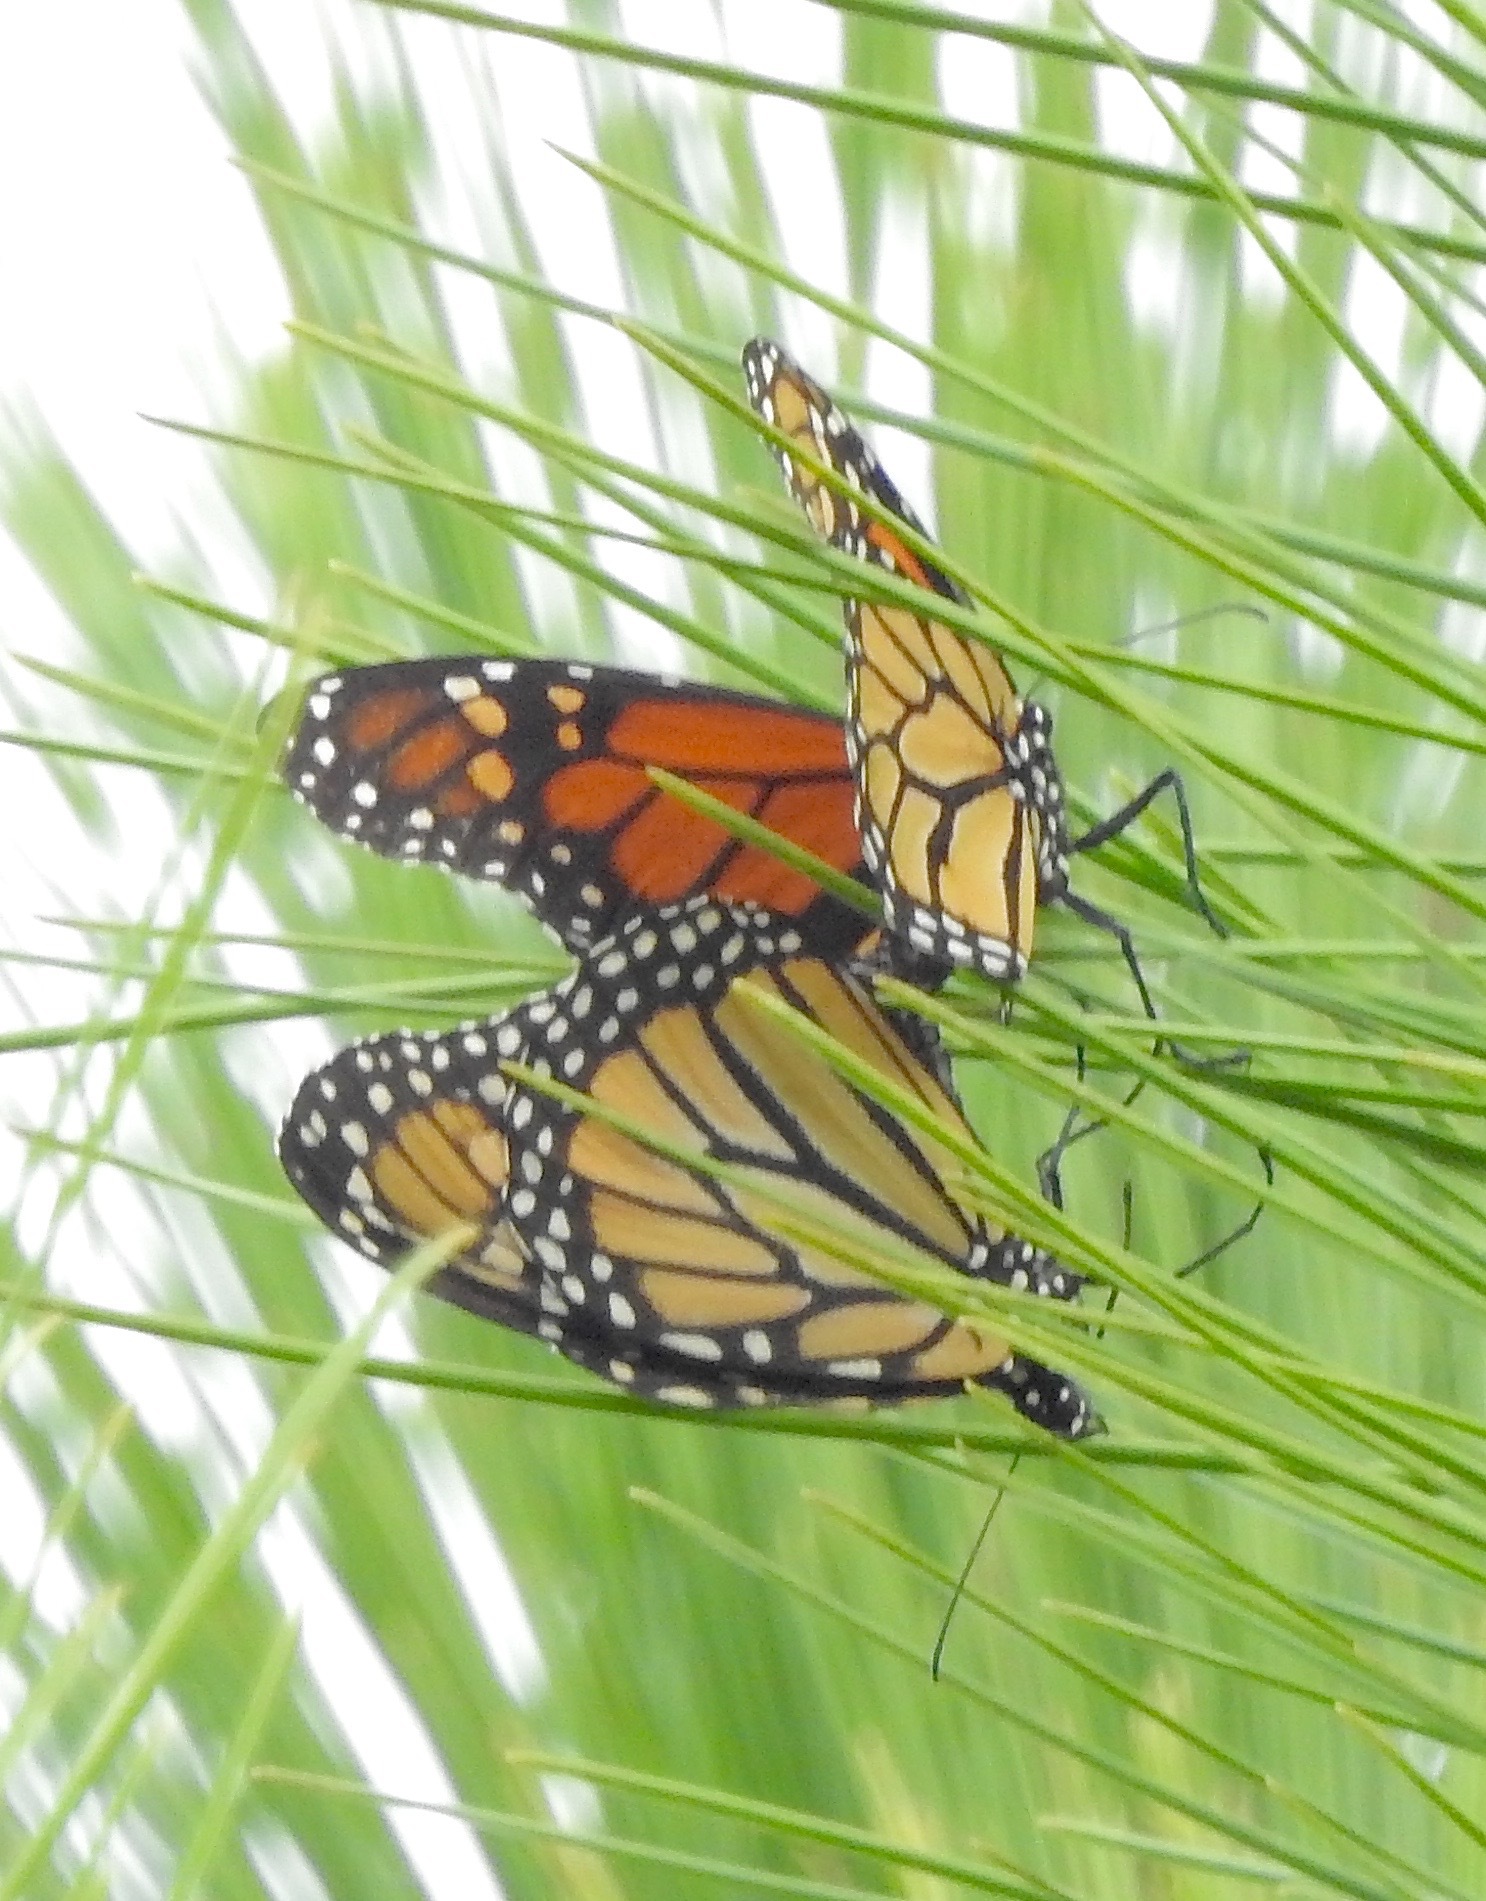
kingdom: Animalia
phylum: Arthropoda
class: Insecta
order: Lepidoptera
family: Nymphalidae
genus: Danaus
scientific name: Danaus plexippus
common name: Monarch
